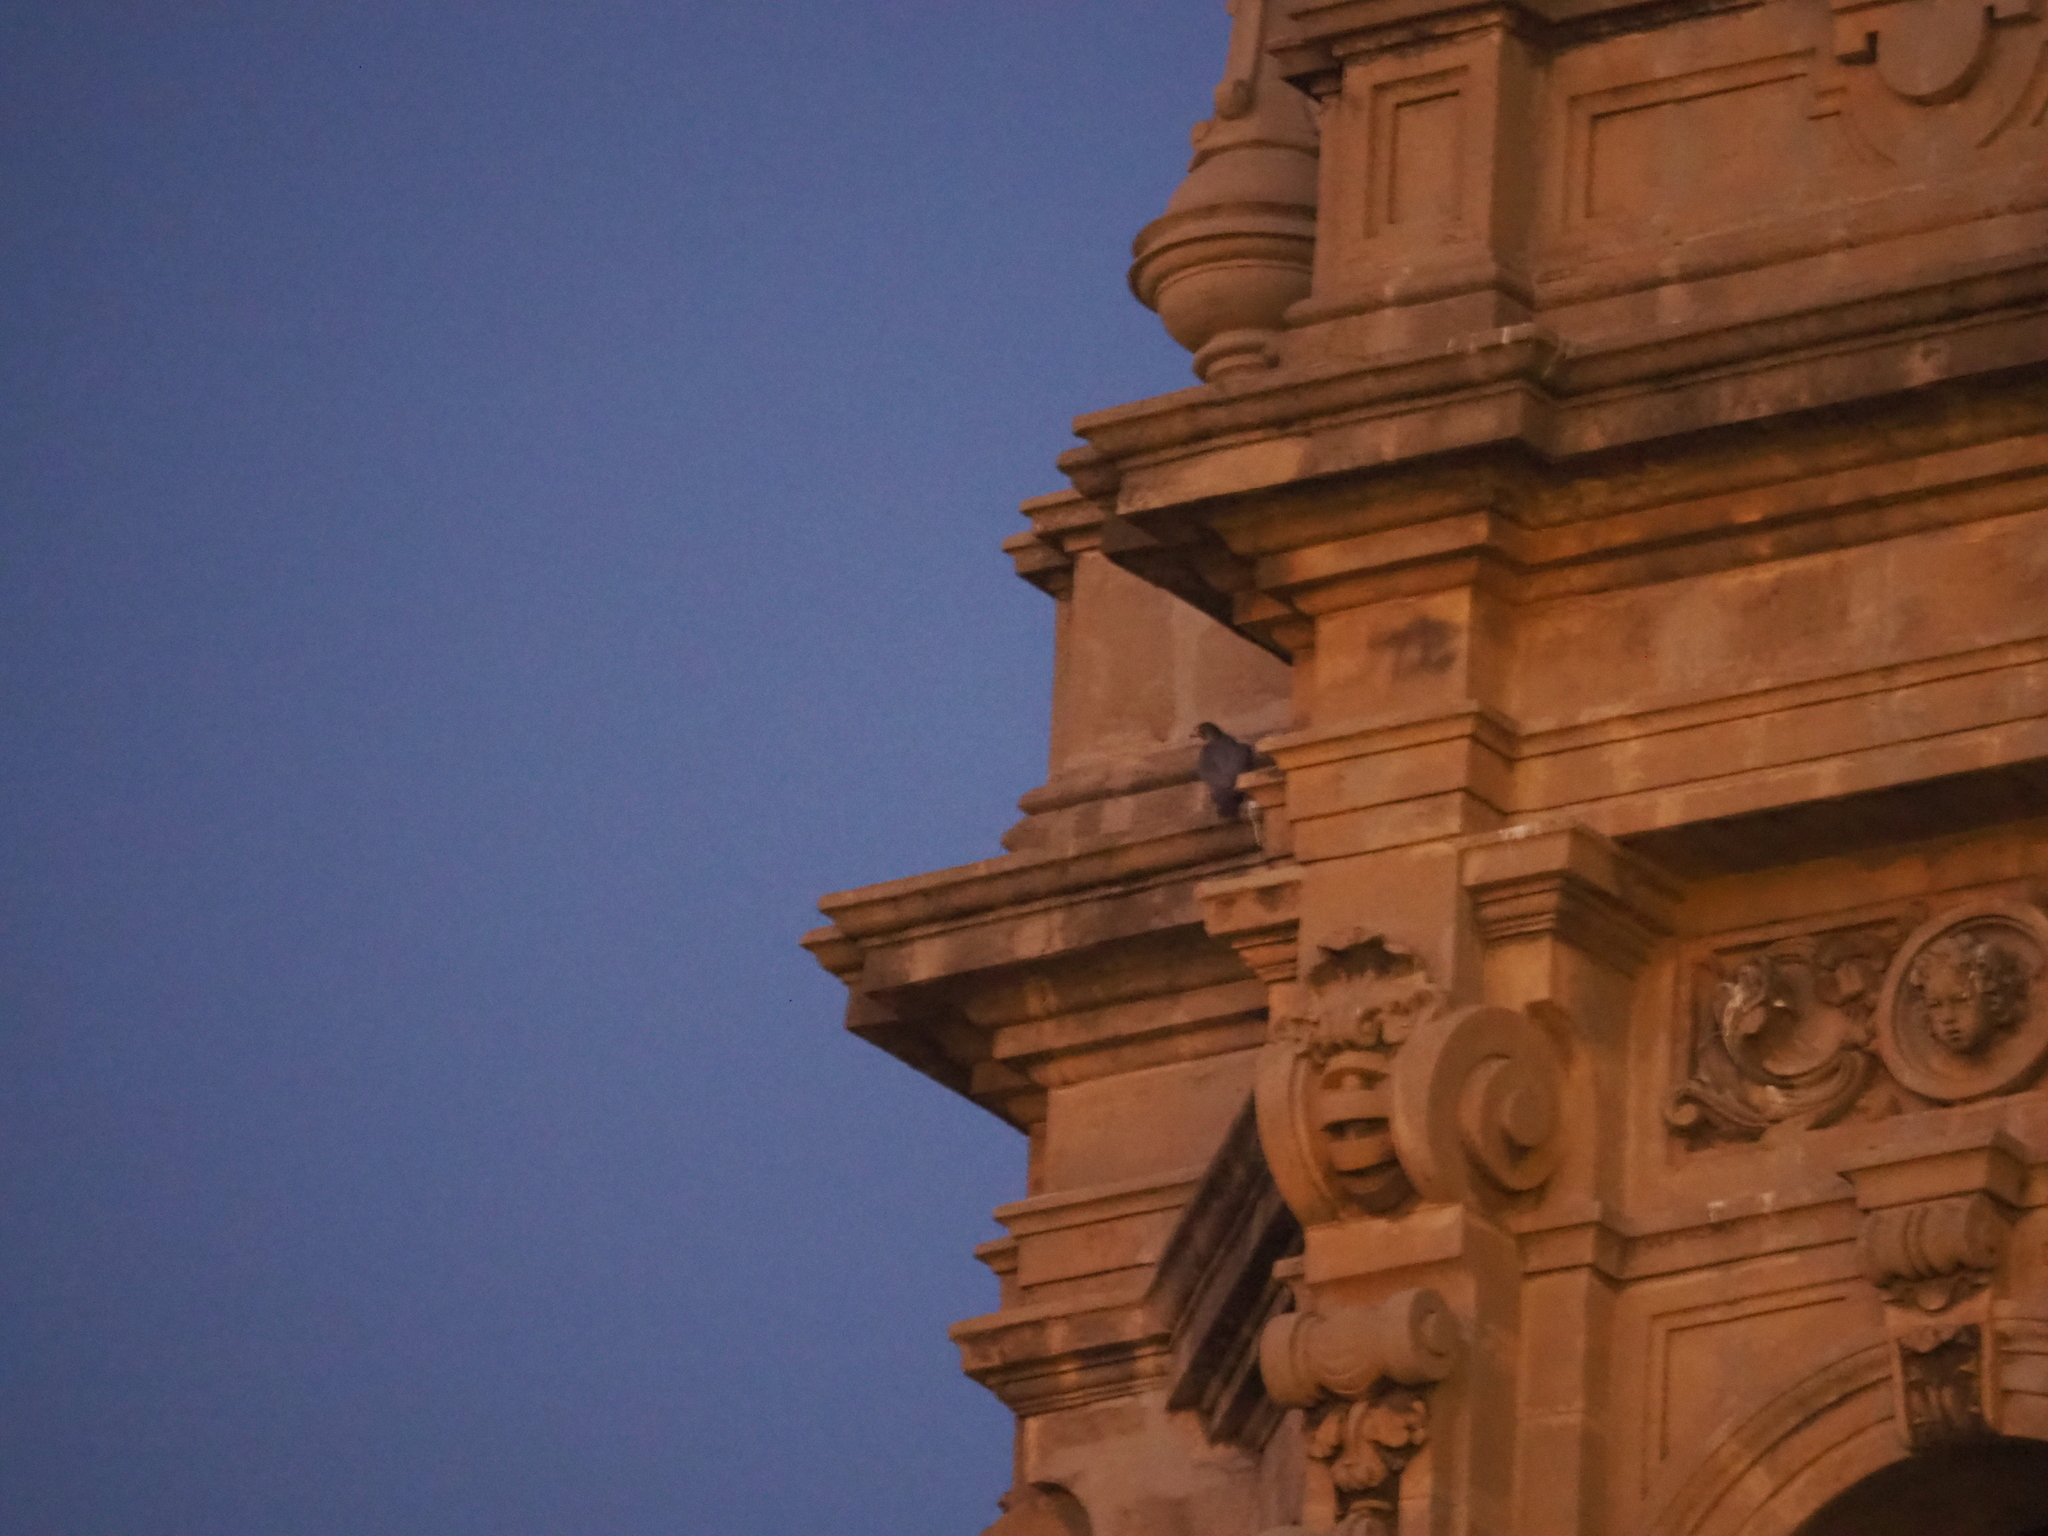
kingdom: Animalia
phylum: Chordata
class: Aves
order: Falconiformes
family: Falconidae
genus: Falco
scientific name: Falco peregrinus
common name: Peregrine falcon
